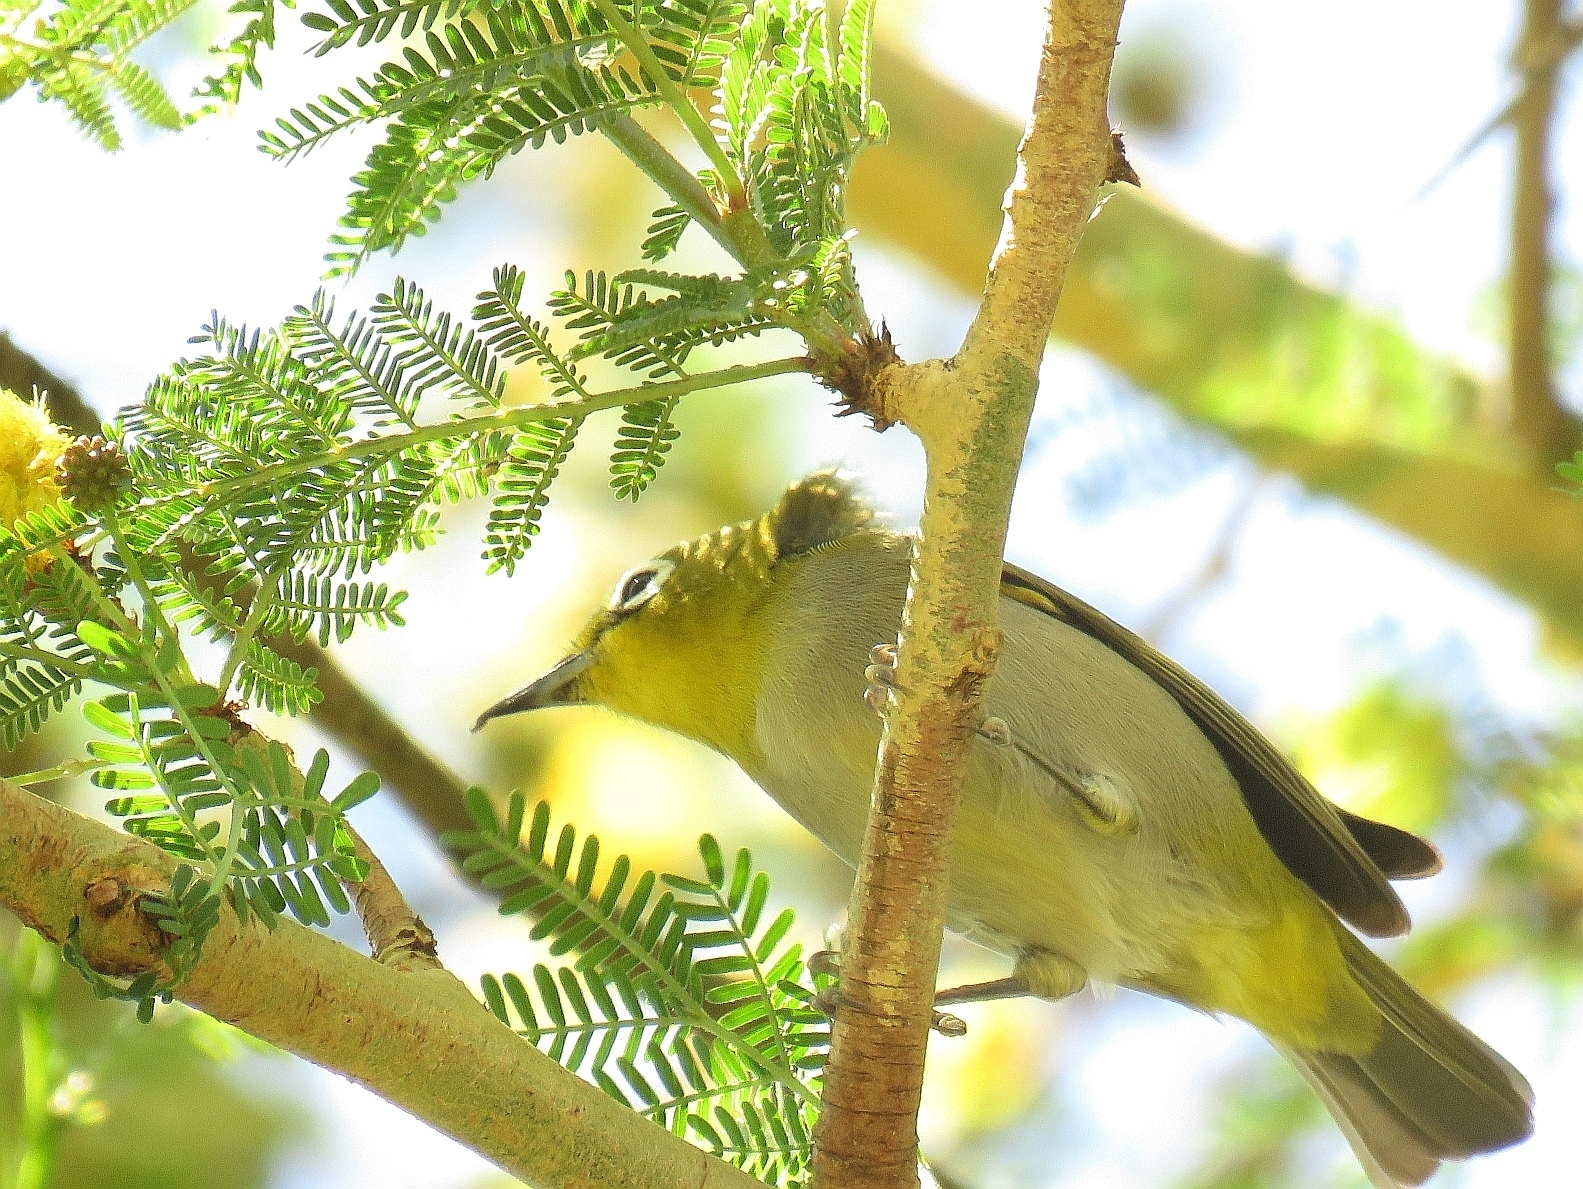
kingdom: Animalia
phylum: Chordata
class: Aves
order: Passeriformes
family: Zosteropidae
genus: Zosterops
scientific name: Zosterops virens
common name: Cape white-eye
